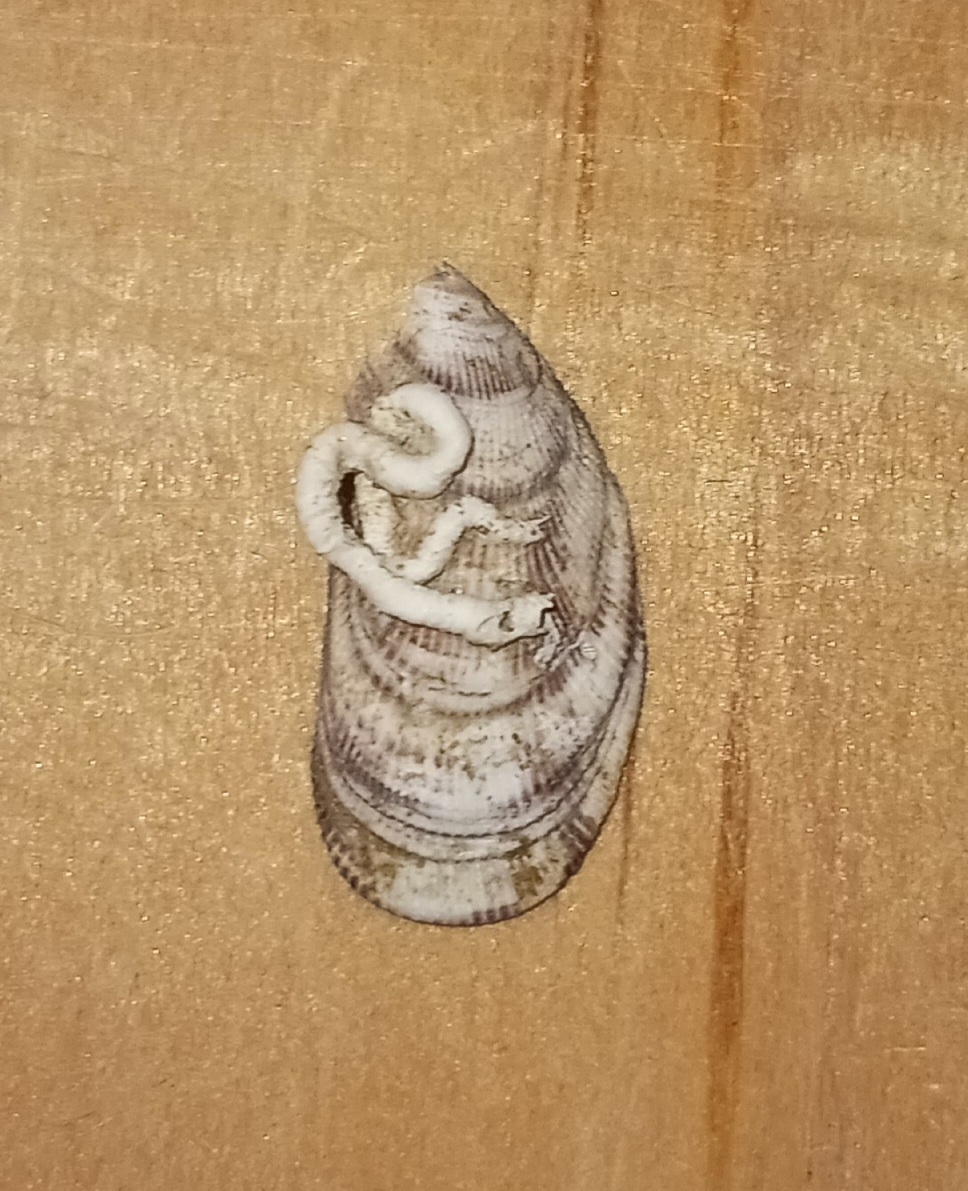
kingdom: Animalia
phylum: Mollusca
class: Bivalvia
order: Mytilida
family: Mytilidae
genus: Geukensia
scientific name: Geukensia demissa
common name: Ribbed mussel
